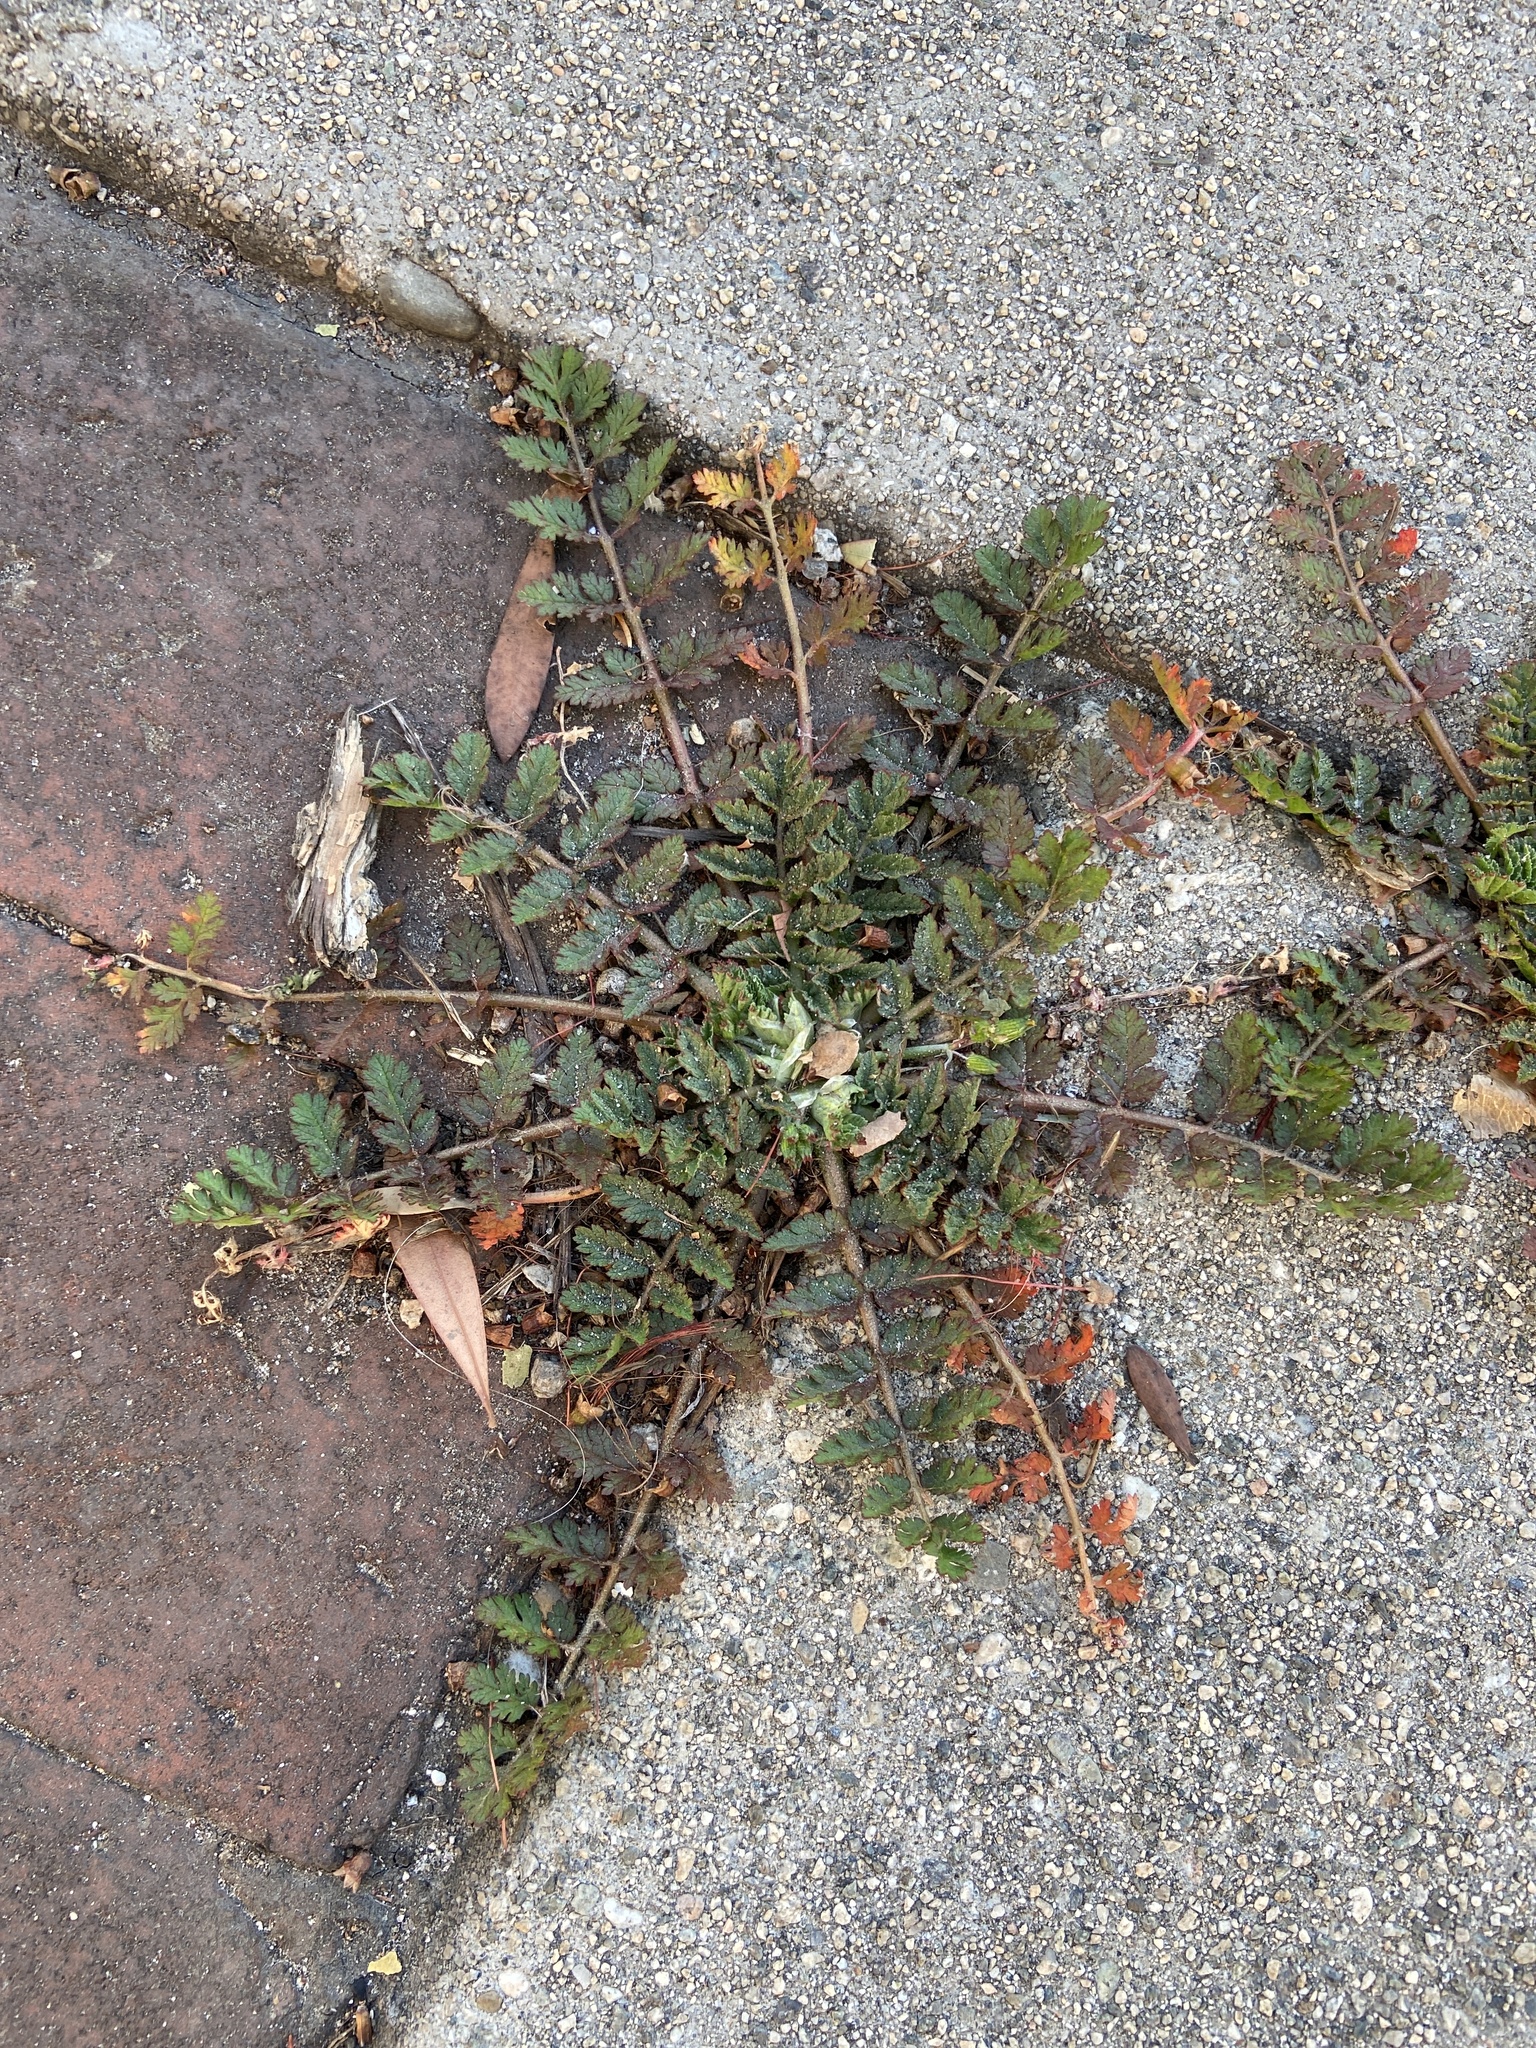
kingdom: Plantae
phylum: Tracheophyta
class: Magnoliopsida
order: Geraniales
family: Geraniaceae
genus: Erodium
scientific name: Erodium moschatum
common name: Musk stork's-bill
